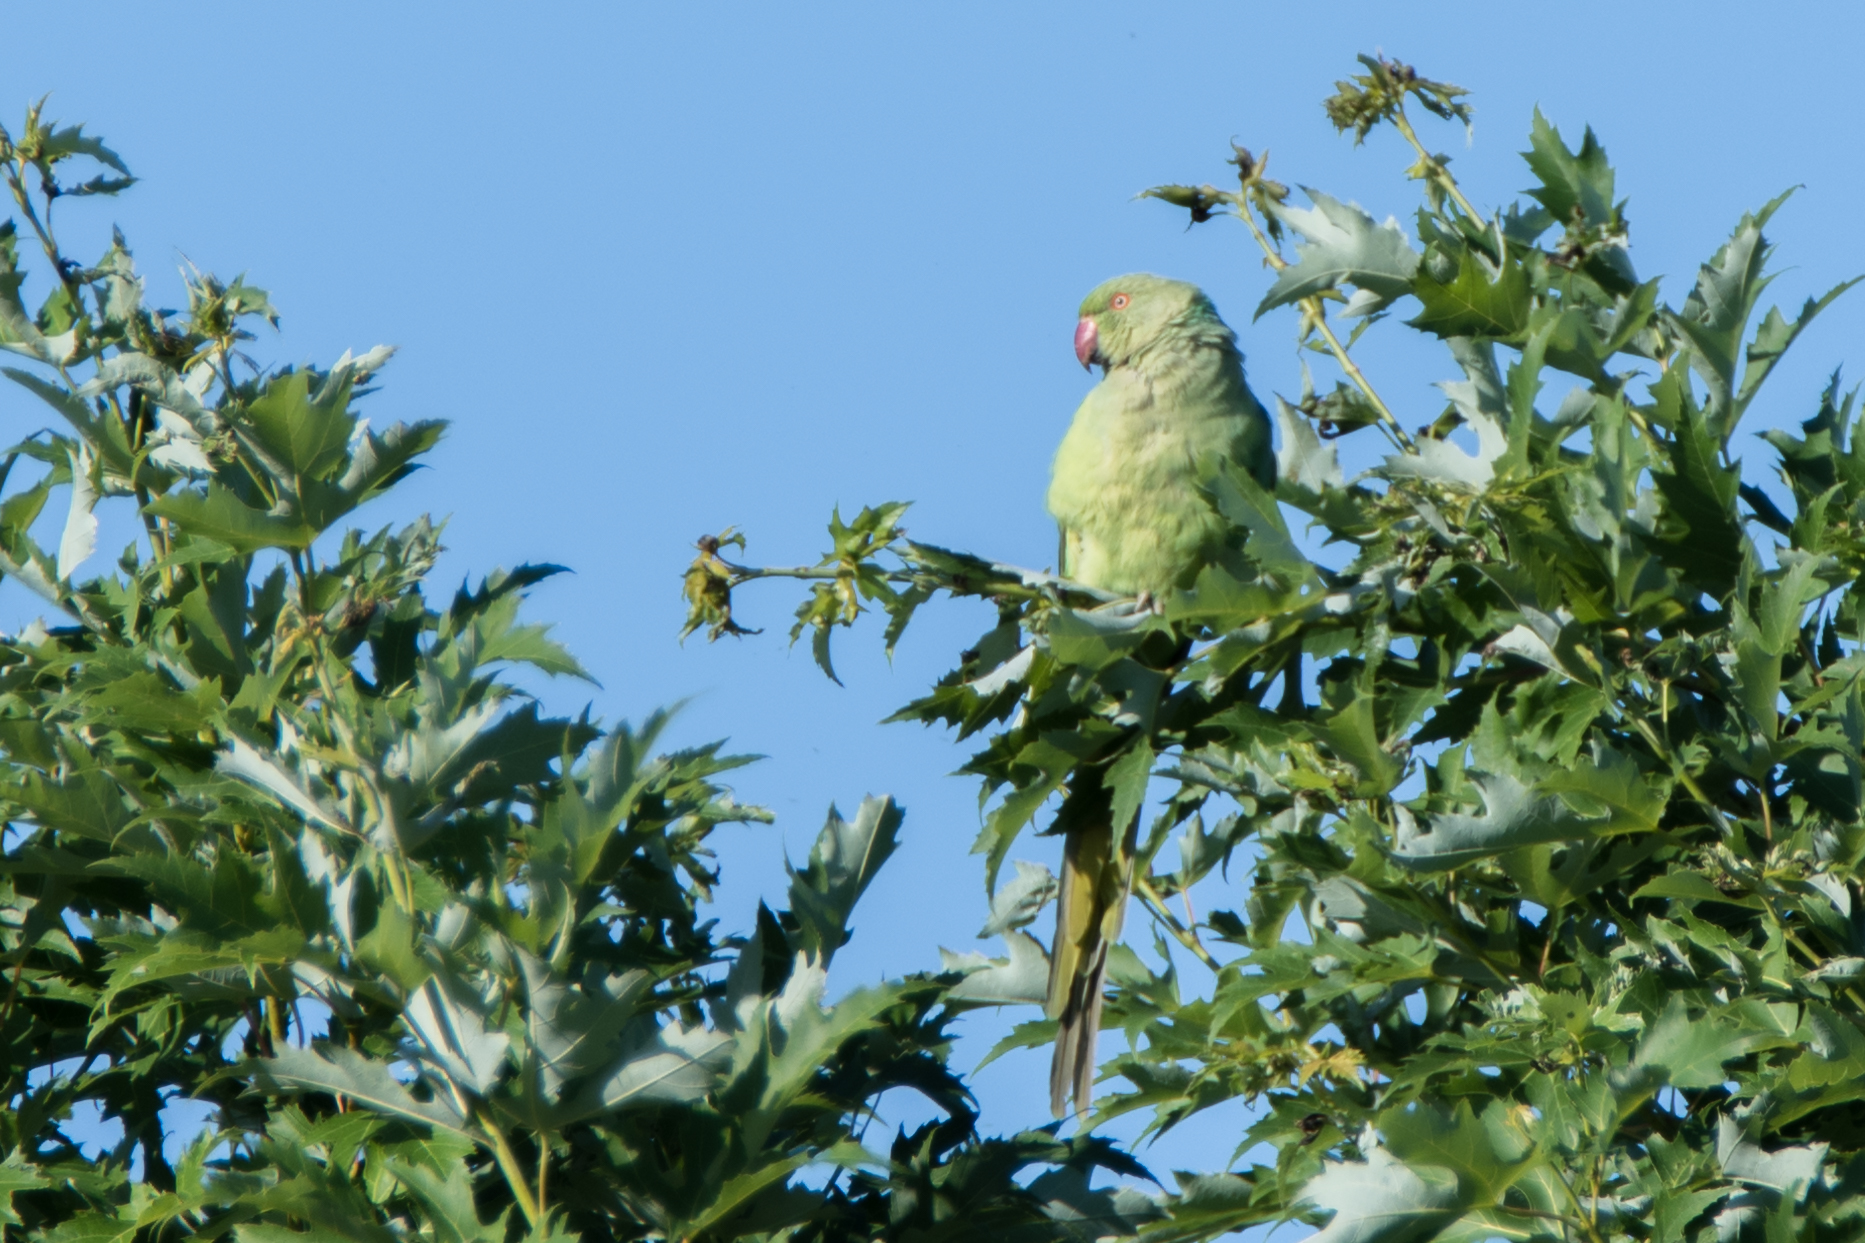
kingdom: Animalia
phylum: Chordata
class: Aves
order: Psittaciformes
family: Psittacidae
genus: Psittacula
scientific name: Psittacula krameri
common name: Rose-ringed parakeet
